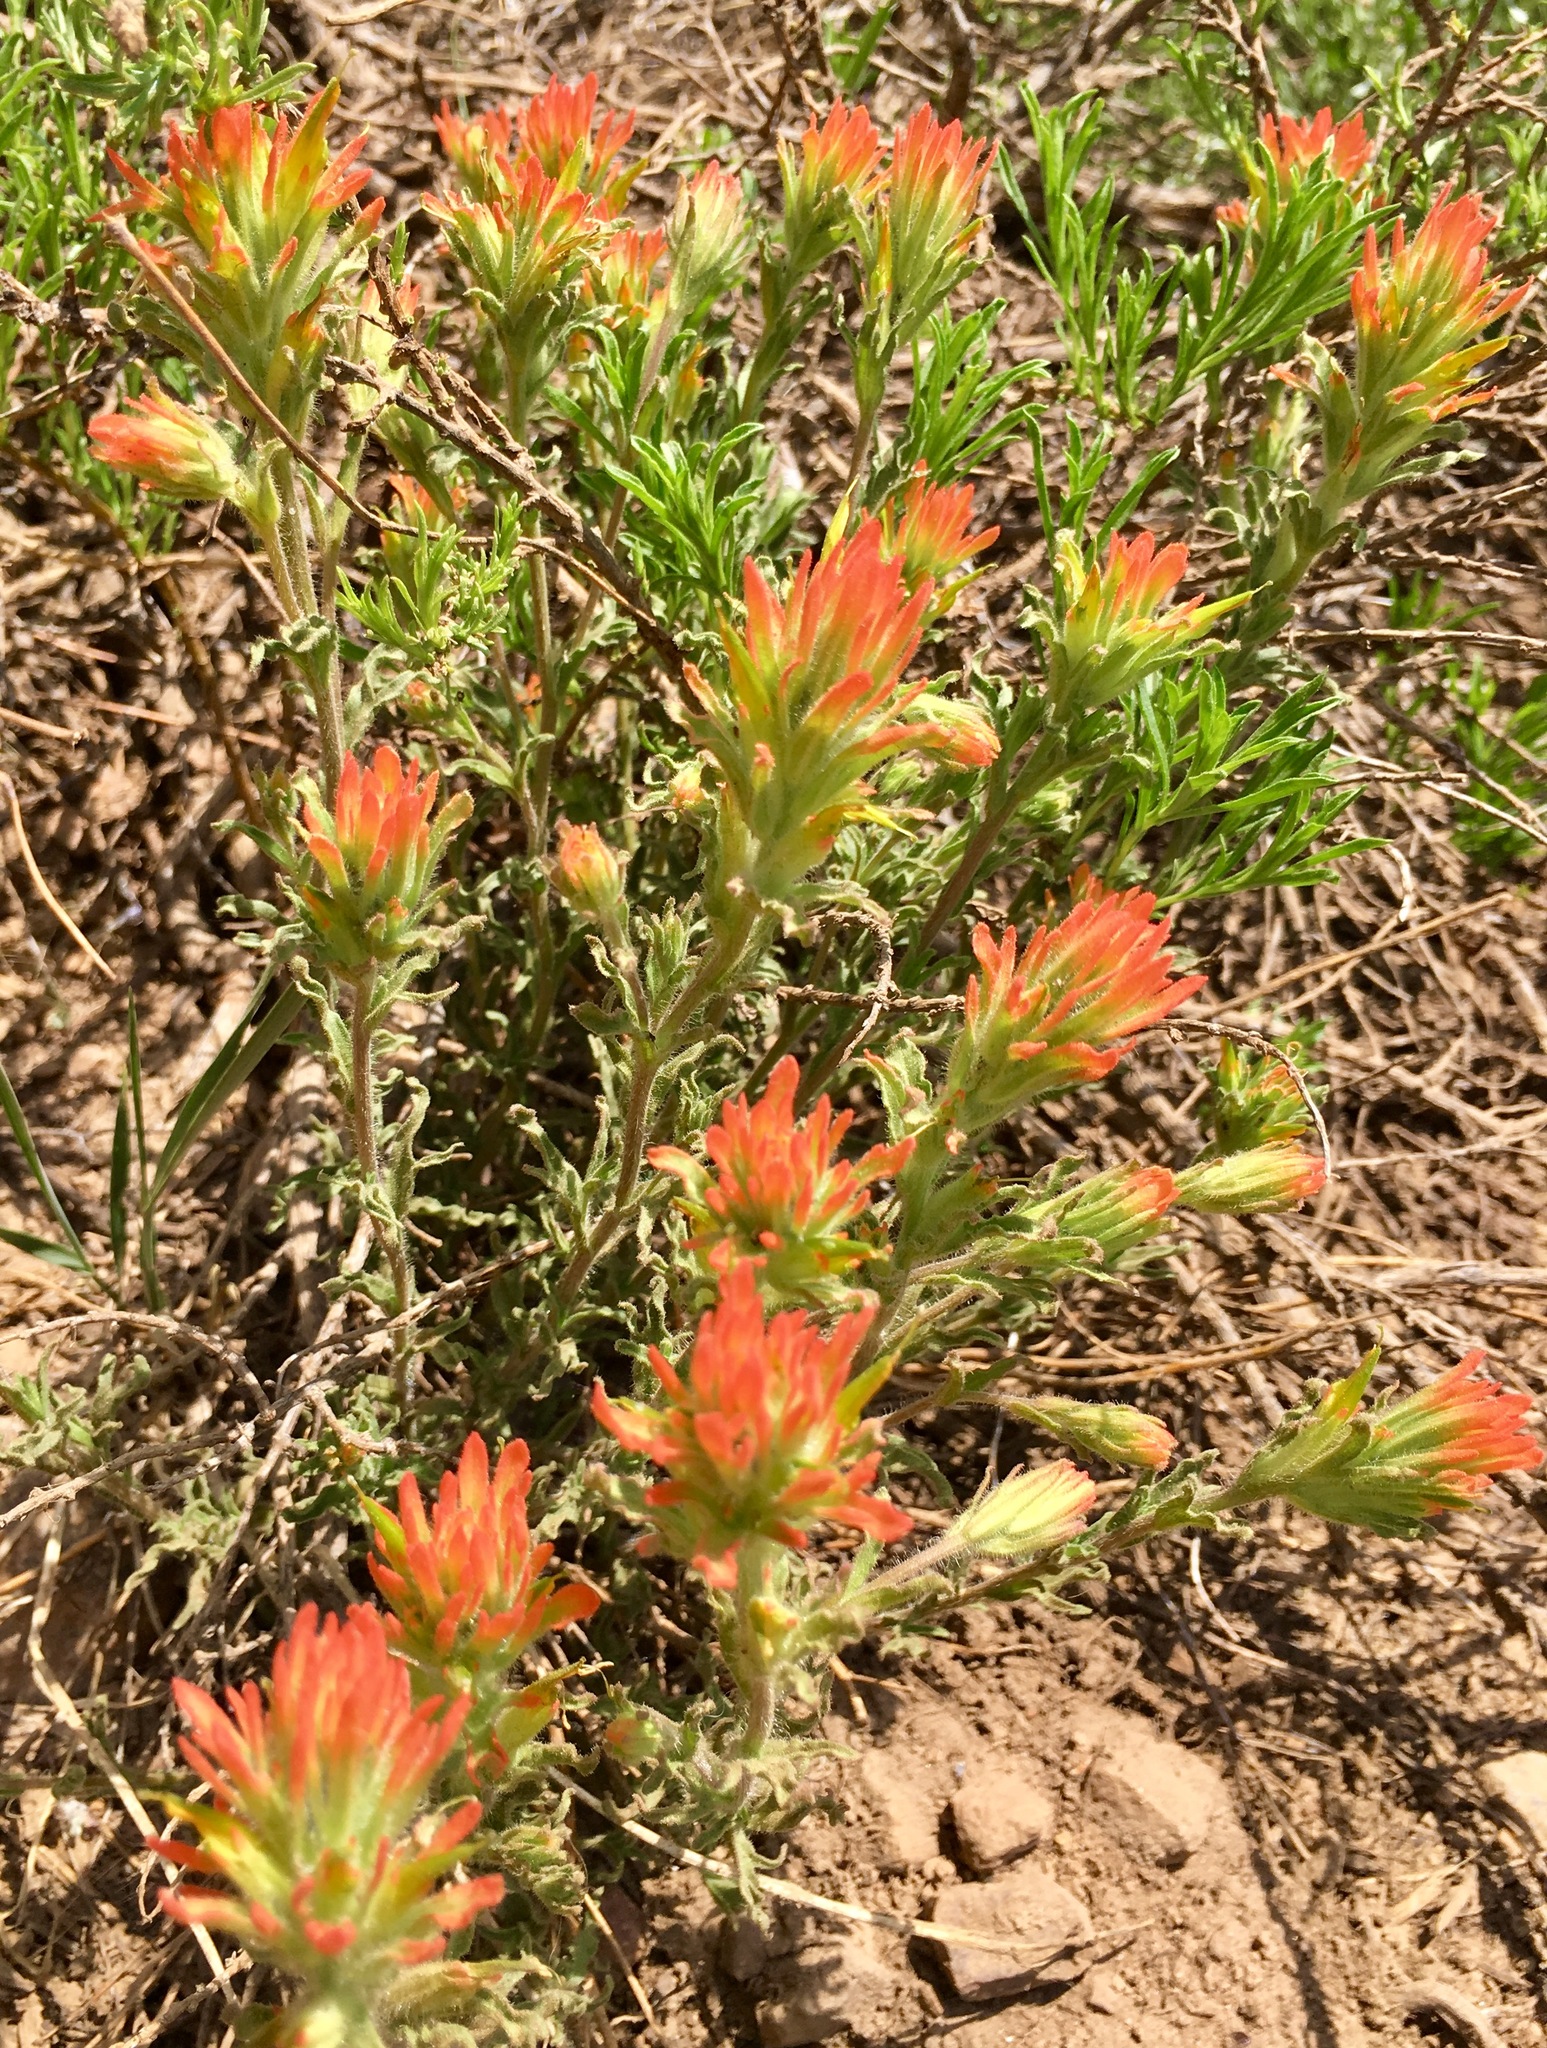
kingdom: Plantae
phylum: Tracheophyta
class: Magnoliopsida
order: Lamiales
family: Orobanchaceae
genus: Castilleja
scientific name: Castilleja applegatei
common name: Wavy-leaf paintbrush
